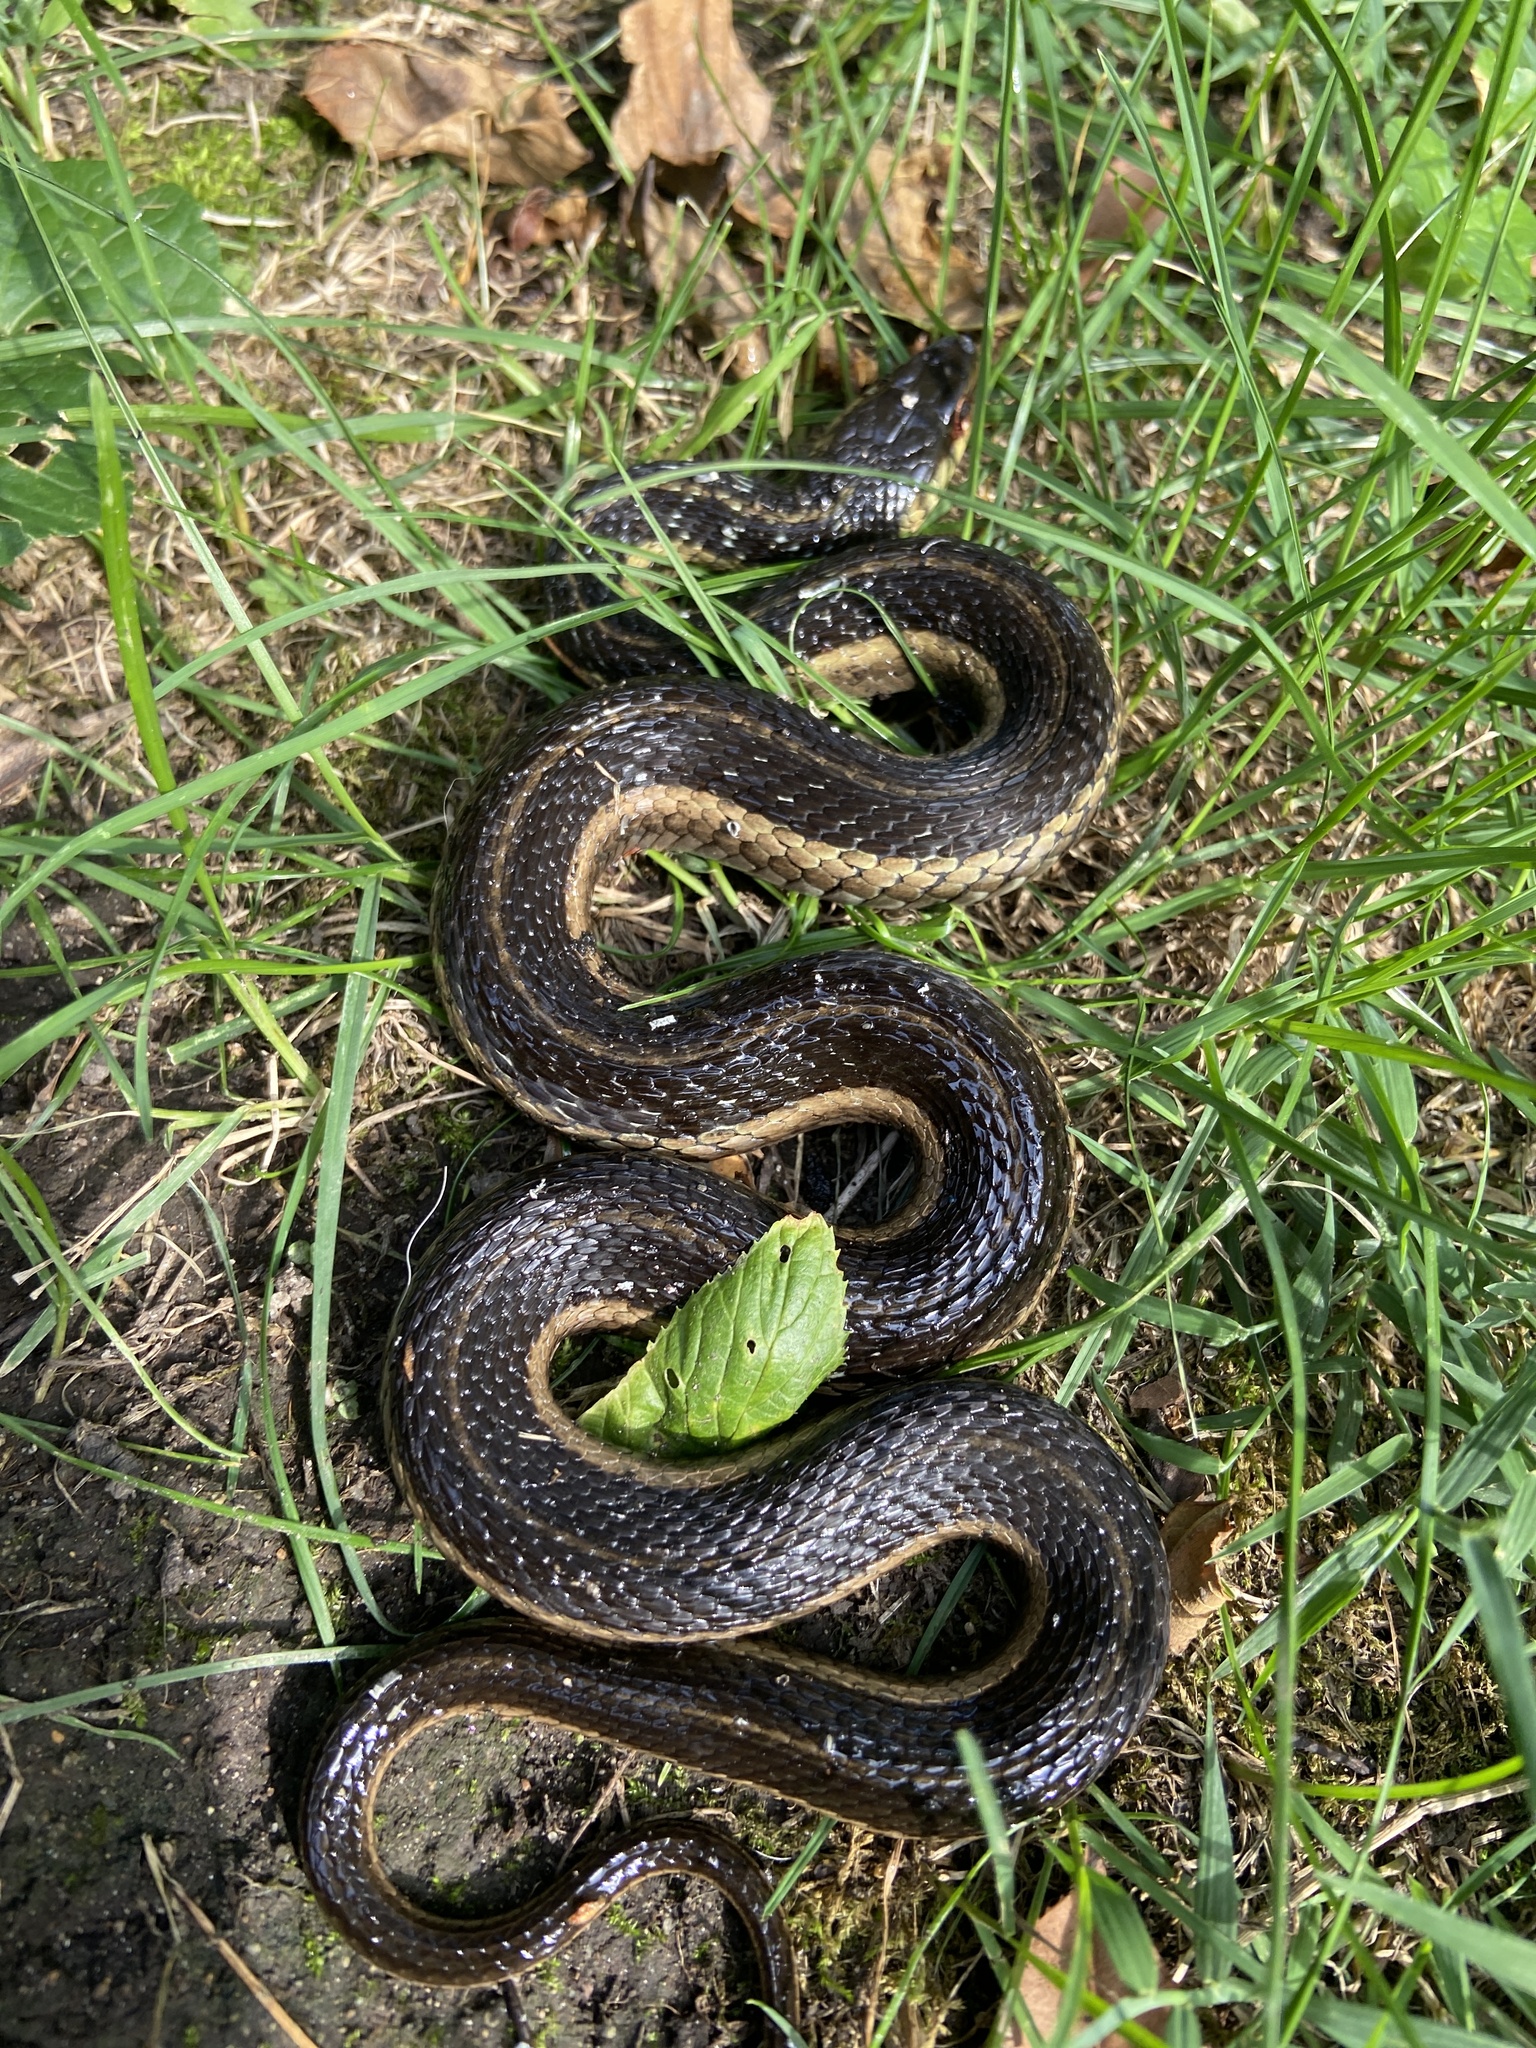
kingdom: Animalia
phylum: Chordata
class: Squamata
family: Colubridae
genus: Thamnophis
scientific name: Thamnophis sirtalis
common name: Common garter snake
